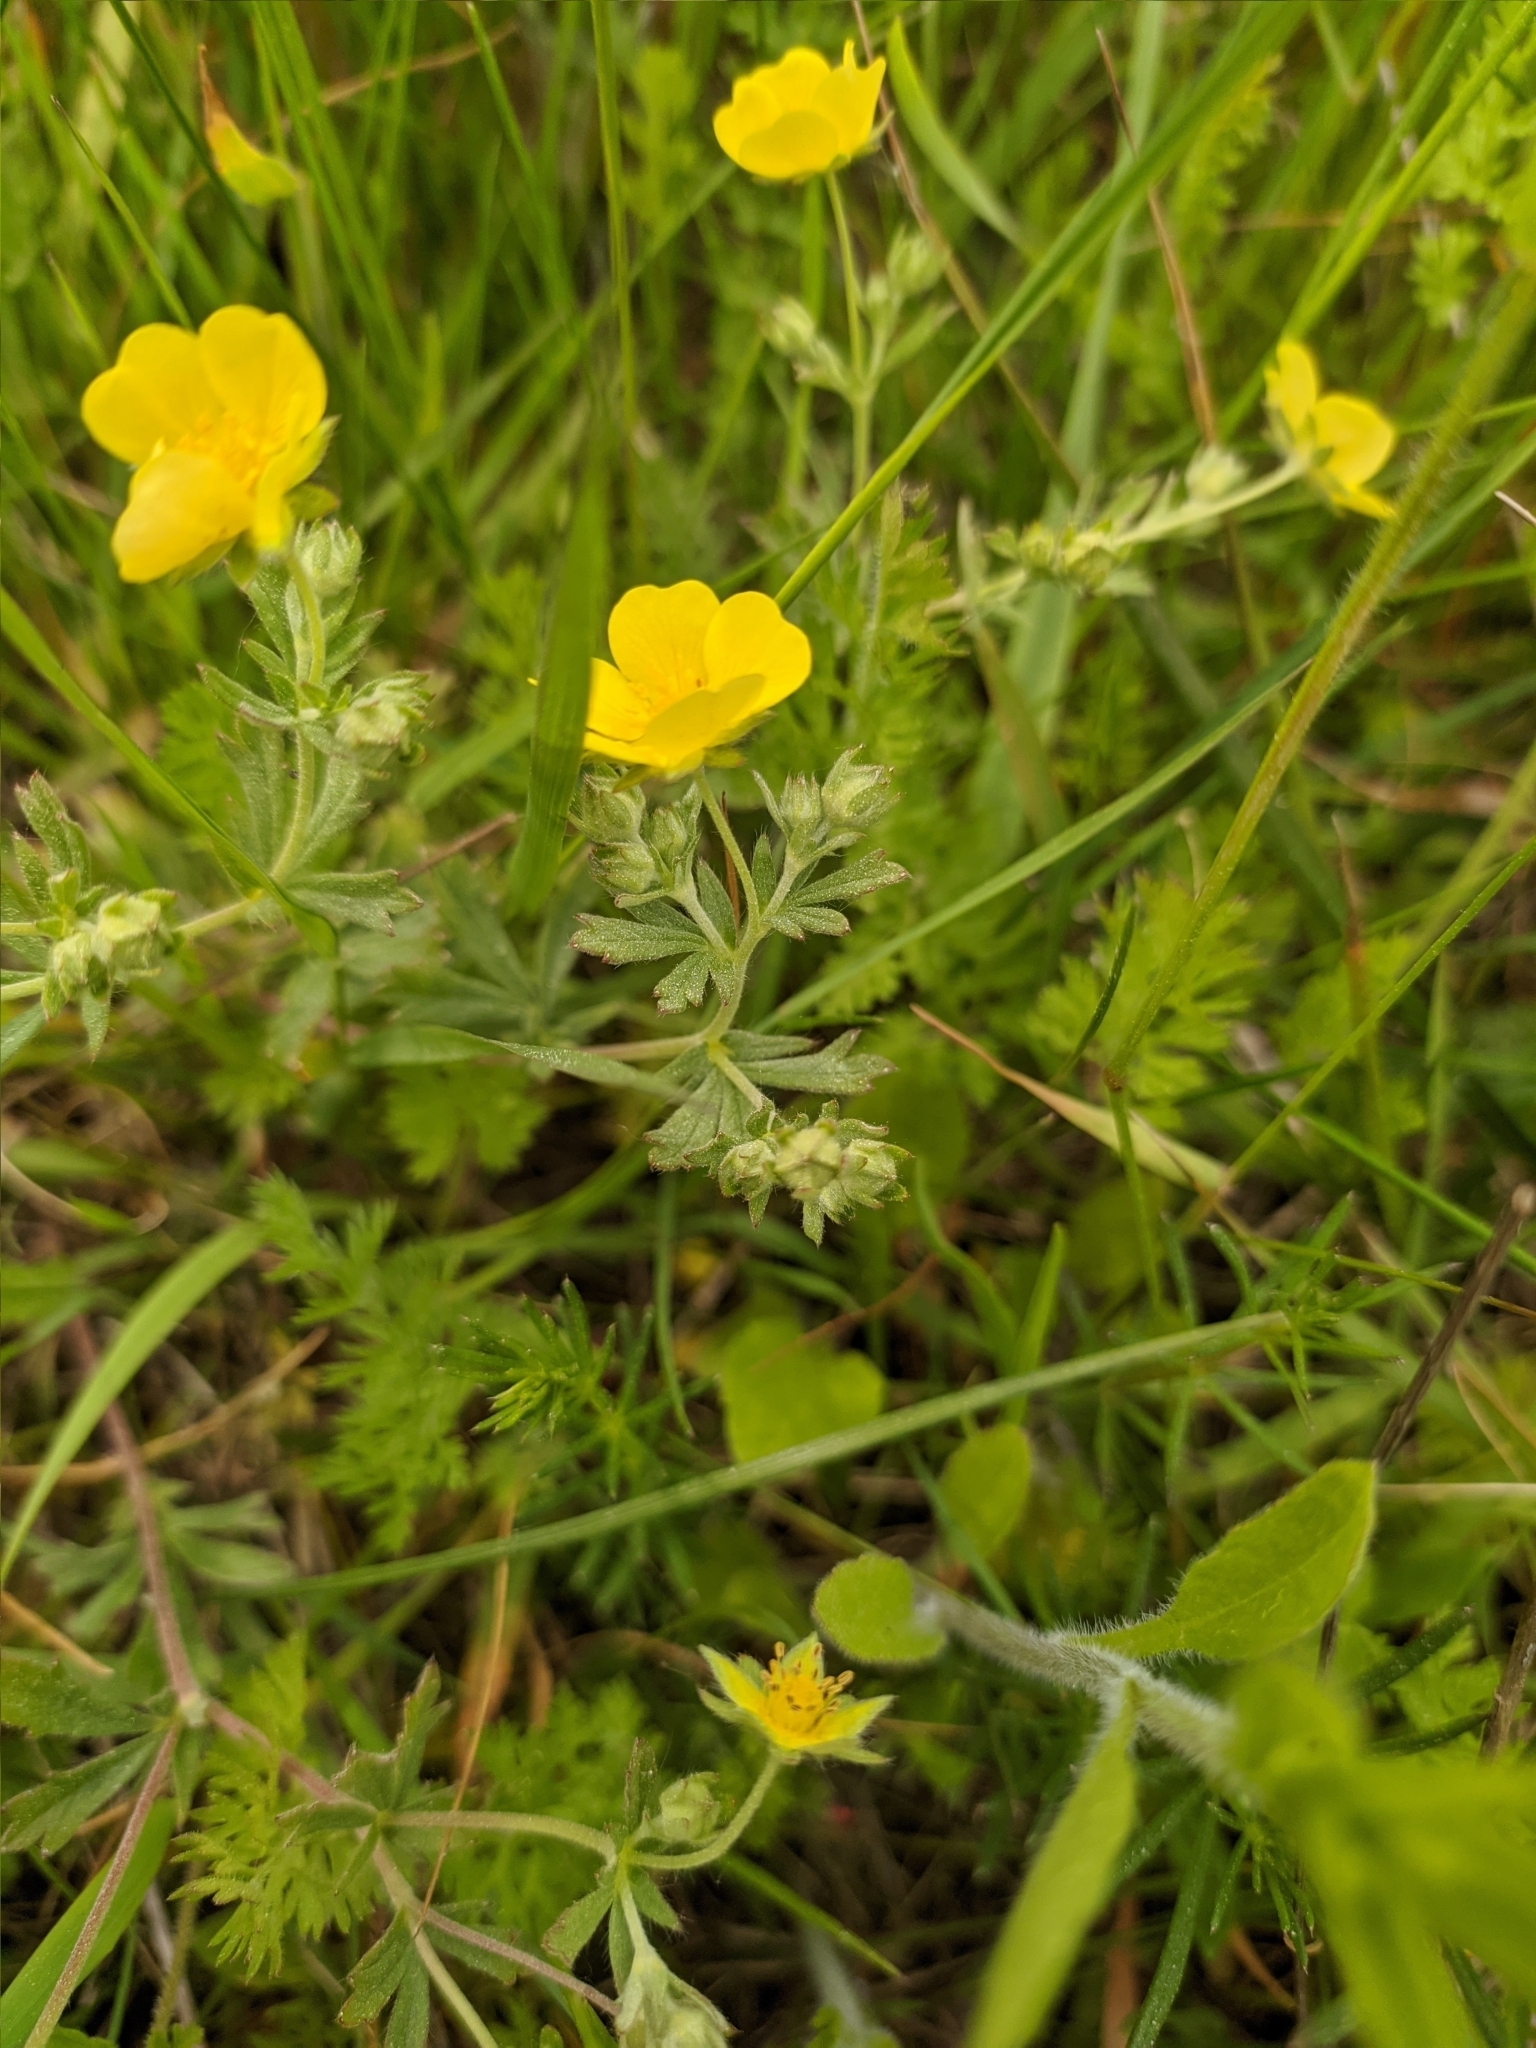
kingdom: Plantae
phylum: Tracheophyta
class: Magnoliopsida
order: Rosales
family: Rosaceae
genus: Potentilla
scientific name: Potentilla argentea
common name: Hoary cinquefoil
